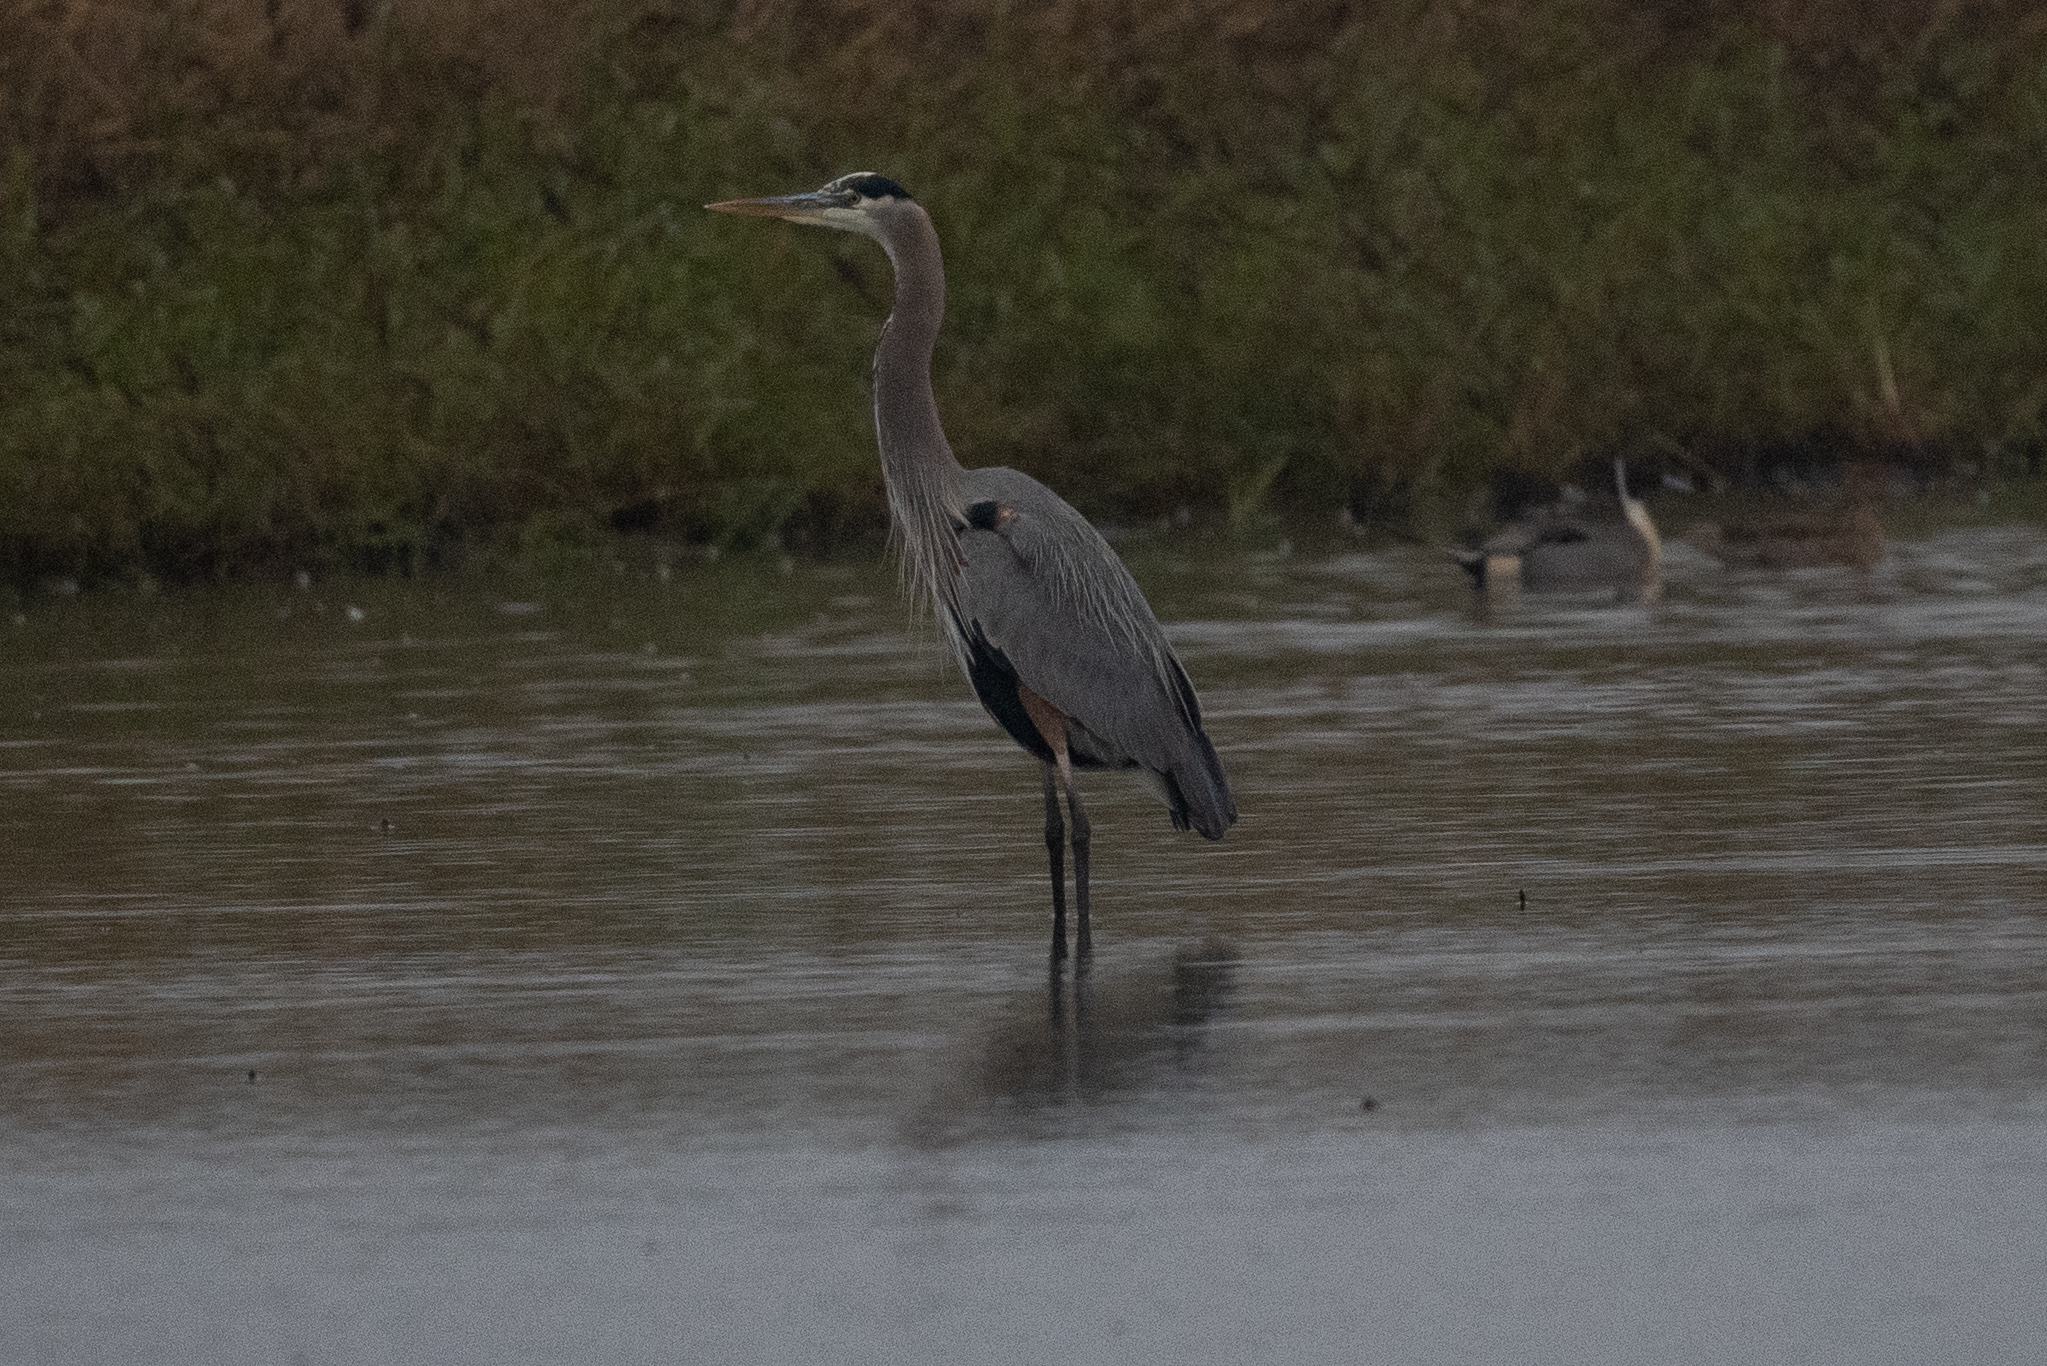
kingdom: Animalia
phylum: Chordata
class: Aves
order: Pelecaniformes
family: Ardeidae
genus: Ardea
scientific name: Ardea herodias
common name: Great blue heron
